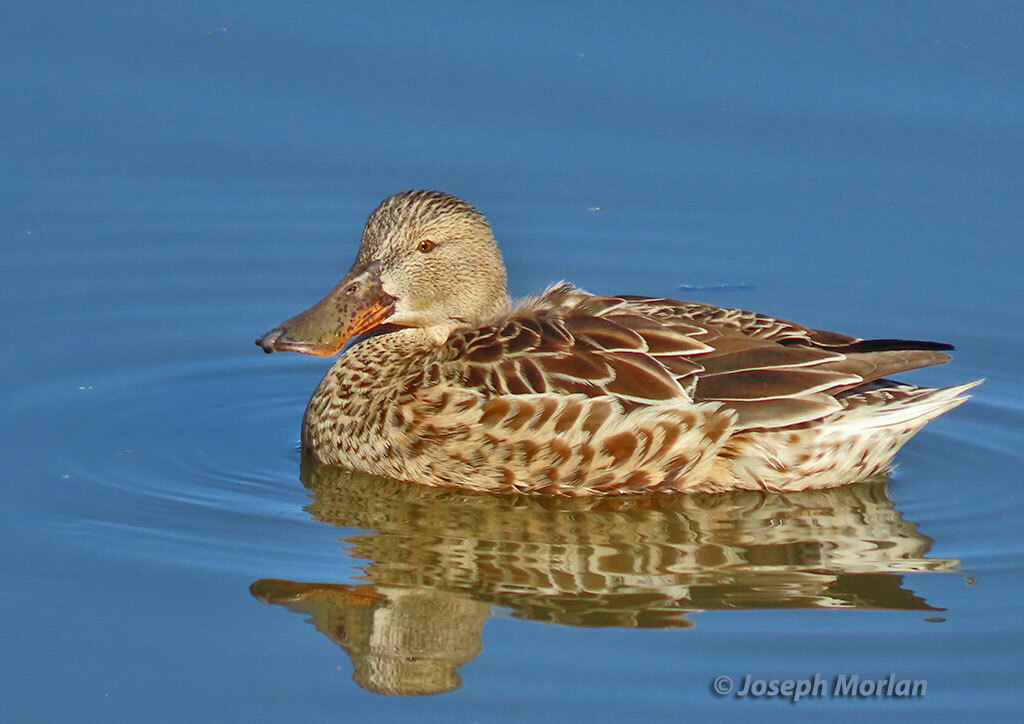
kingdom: Animalia
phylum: Chordata
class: Aves
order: Anseriformes
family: Anatidae
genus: Spatula
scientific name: Spatula clypeata
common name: Northern shoveler
